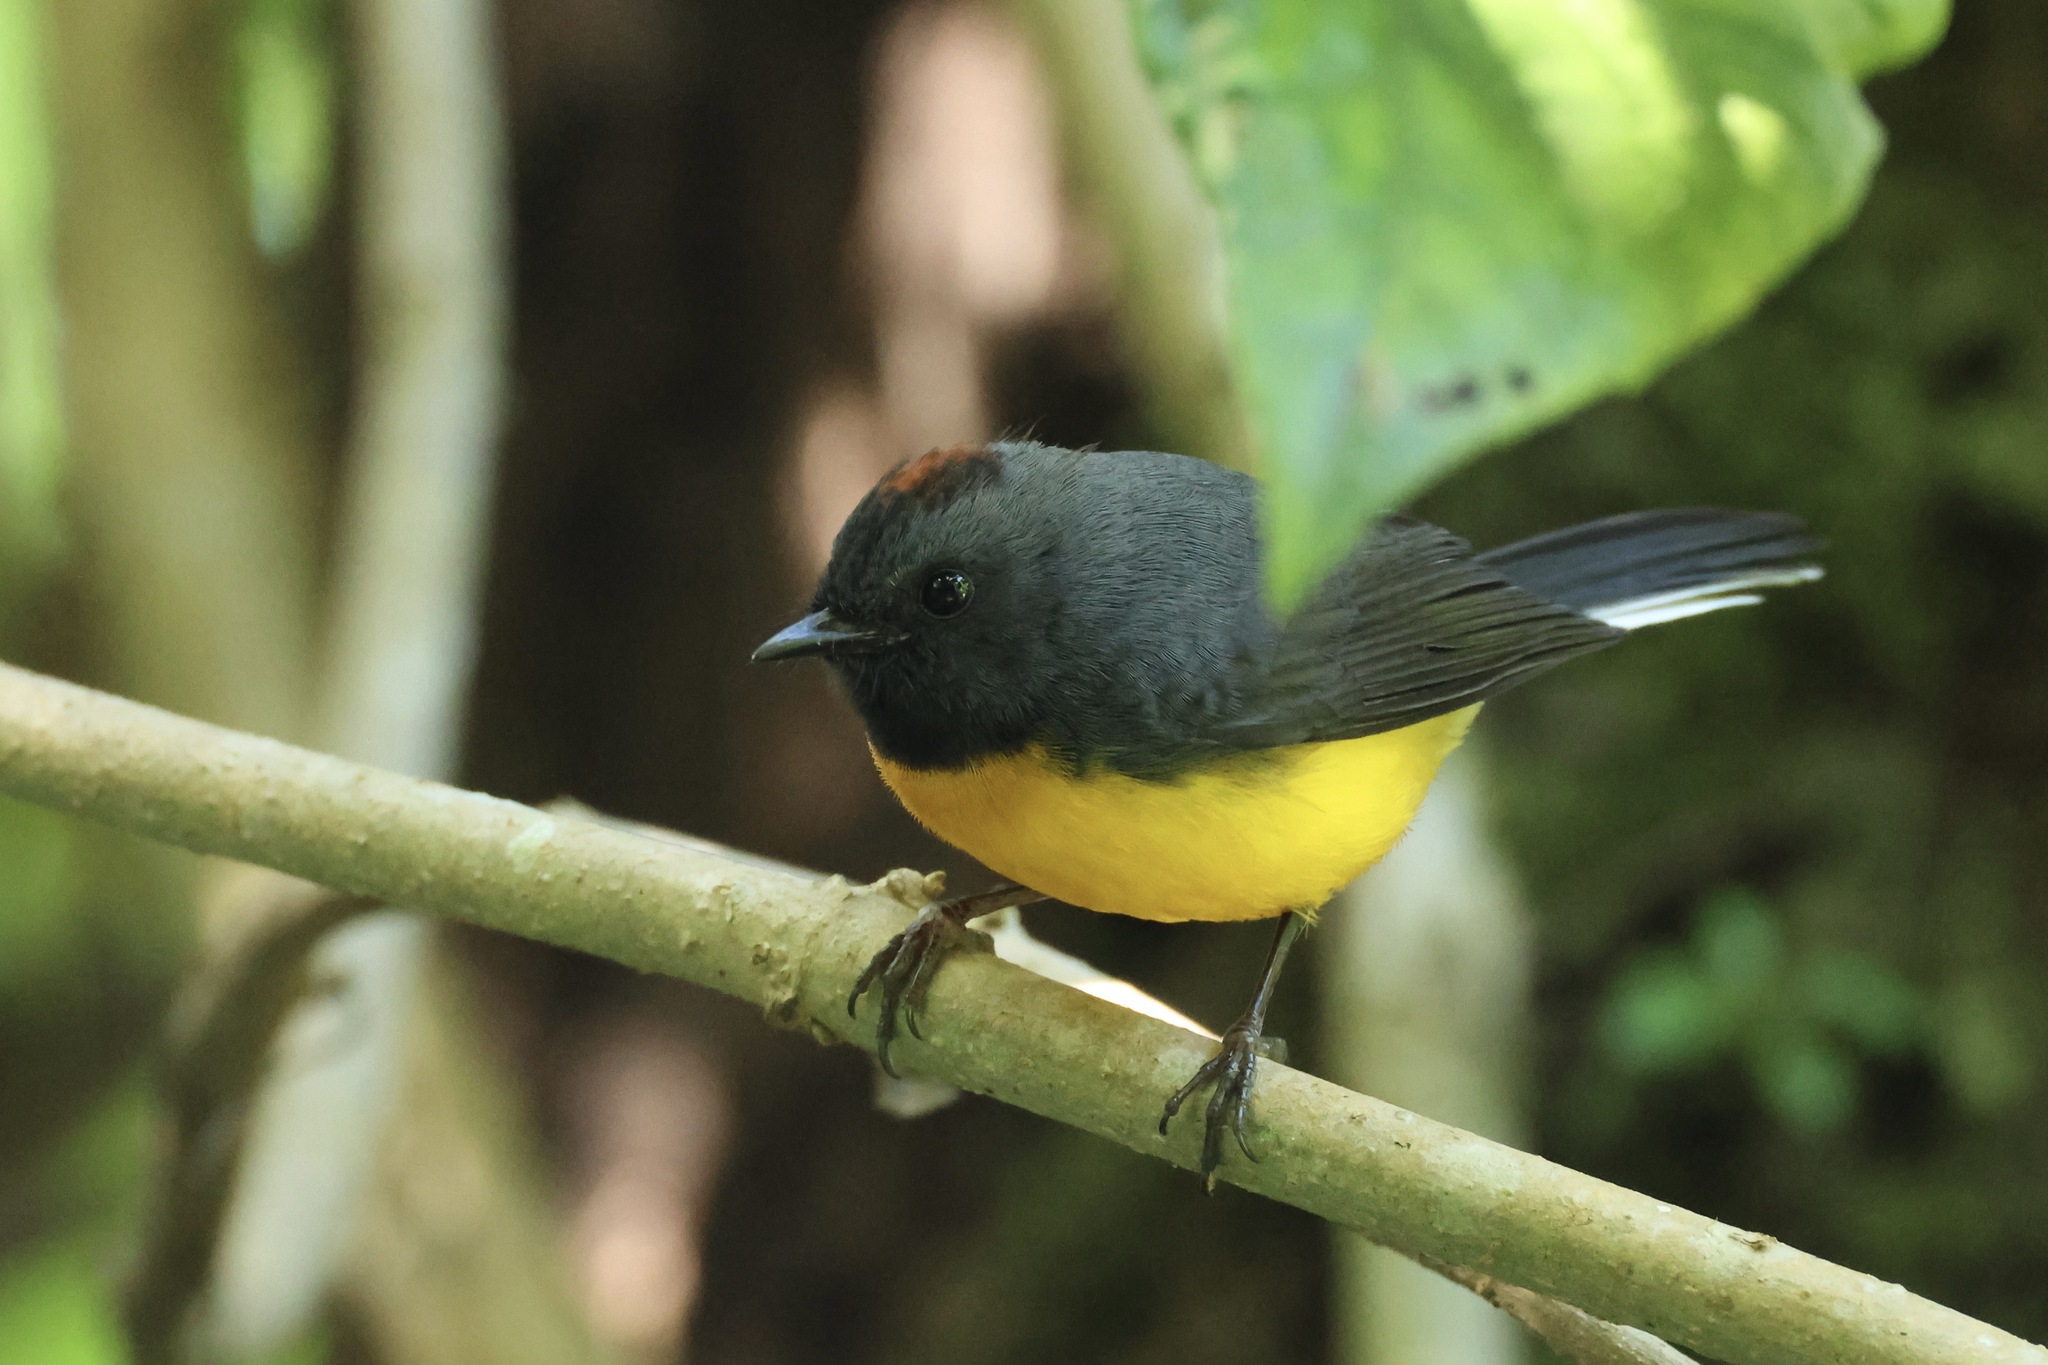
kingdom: Animalia
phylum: Chordata
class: Aves
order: Passeriformes
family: Parulidae
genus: Myioborus
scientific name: Myioborus miniatus
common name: Slate-throated redstart
